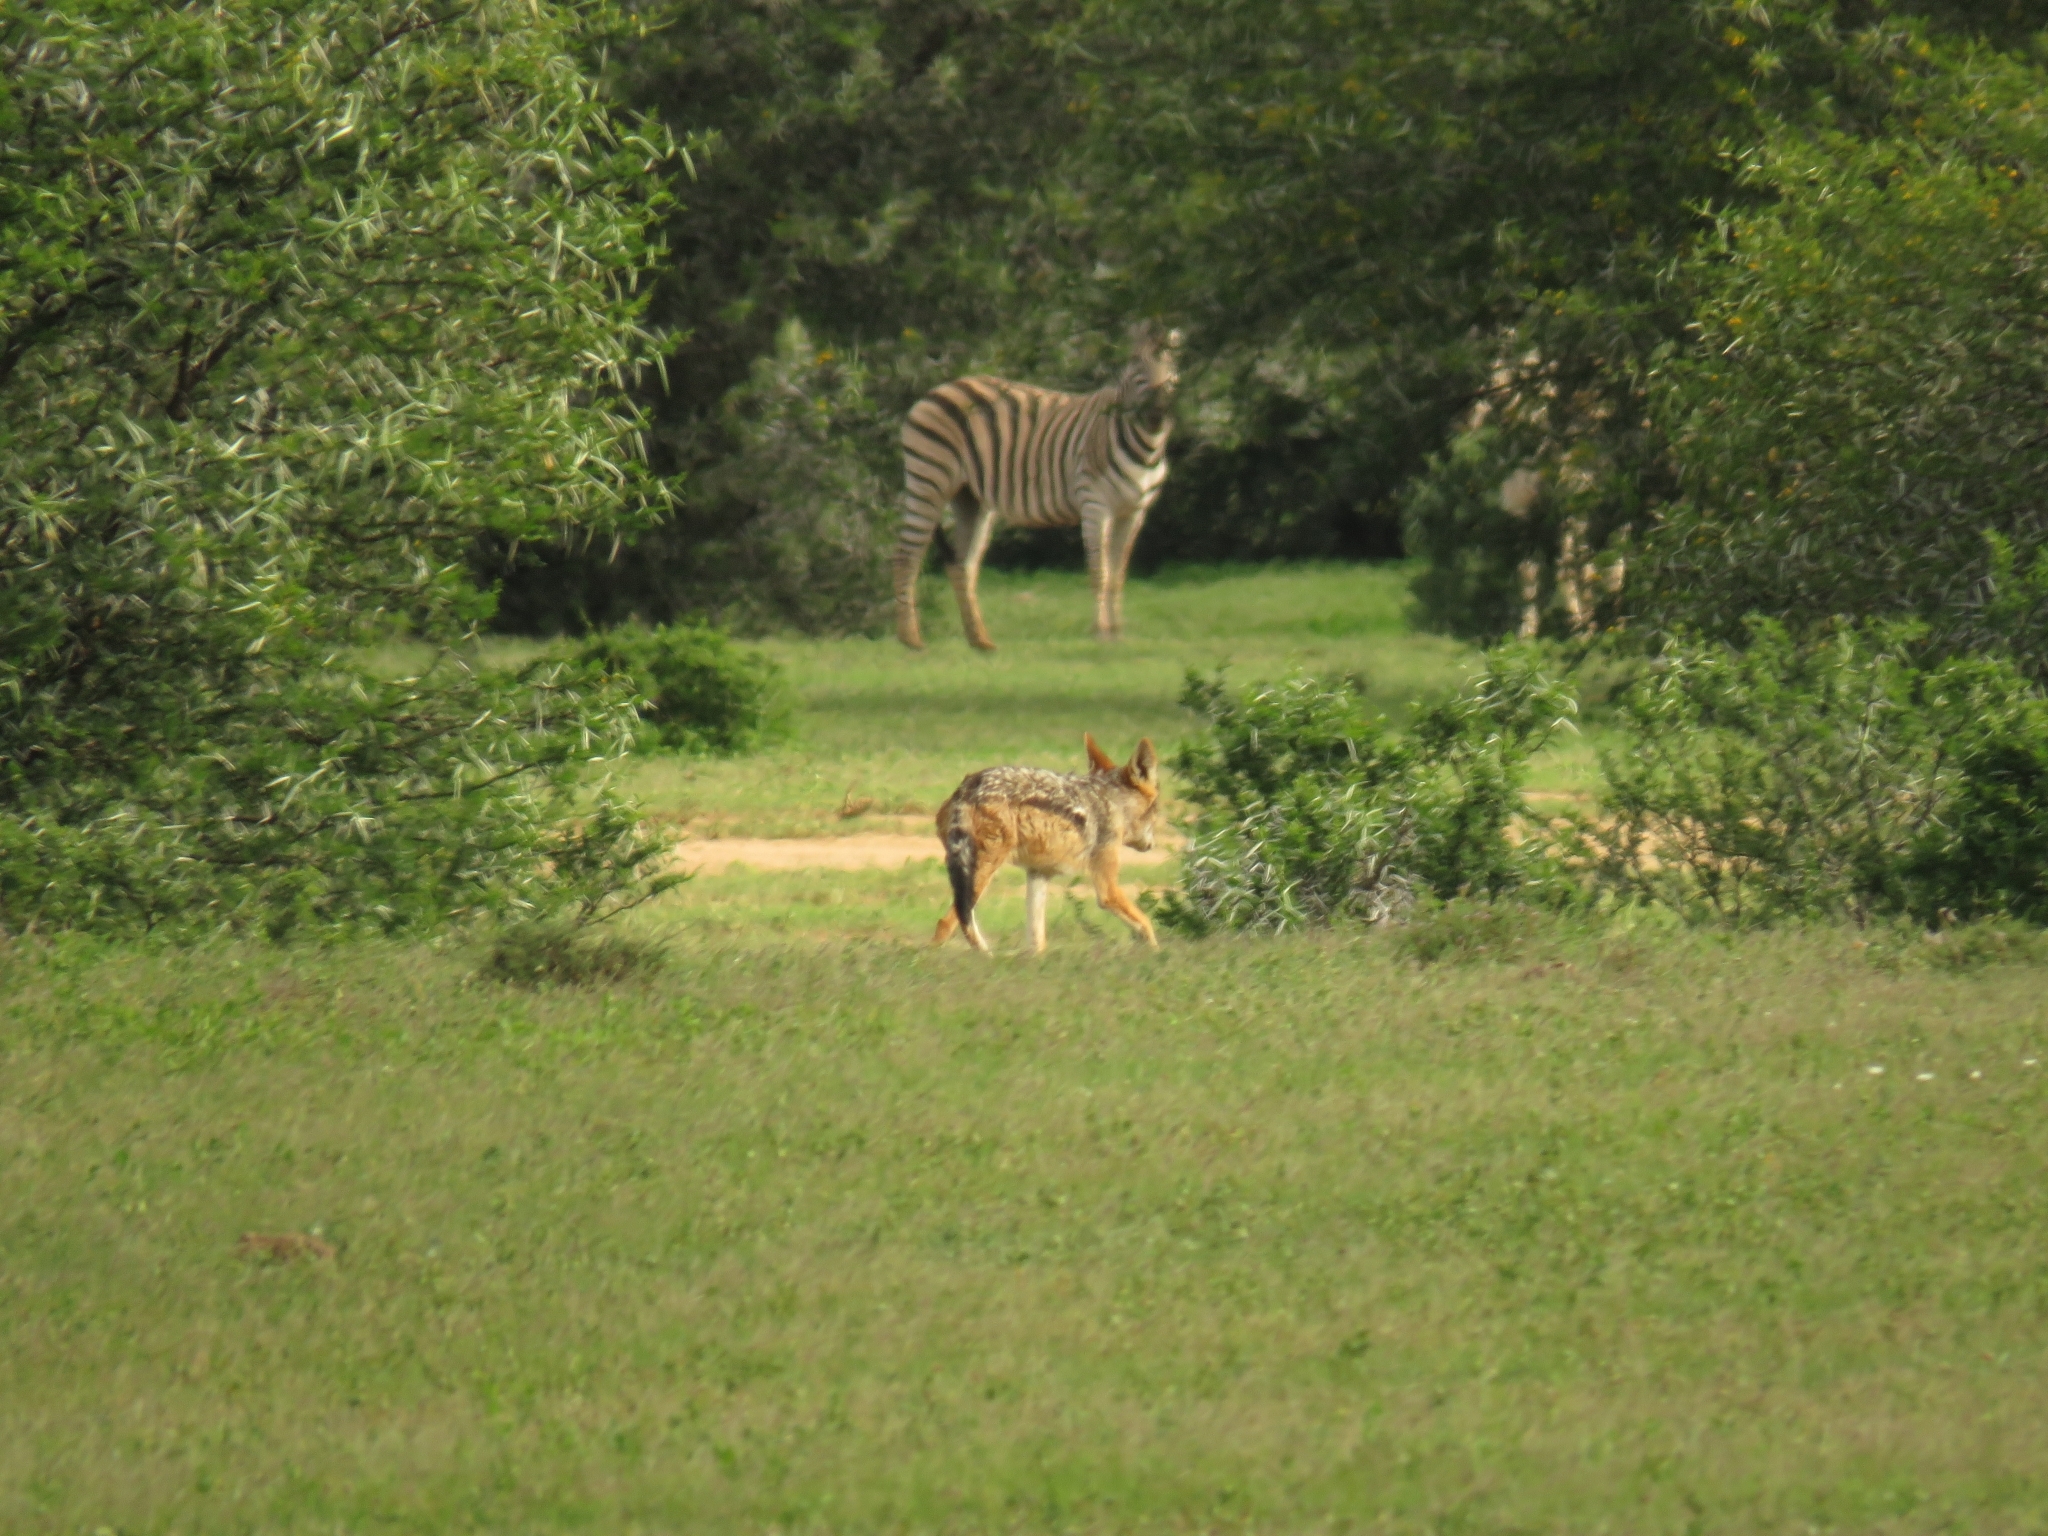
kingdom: Animalia
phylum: Chordata
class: Mammalia
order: Carnivora
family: Canidae
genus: Lupulella
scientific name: Lupulella
